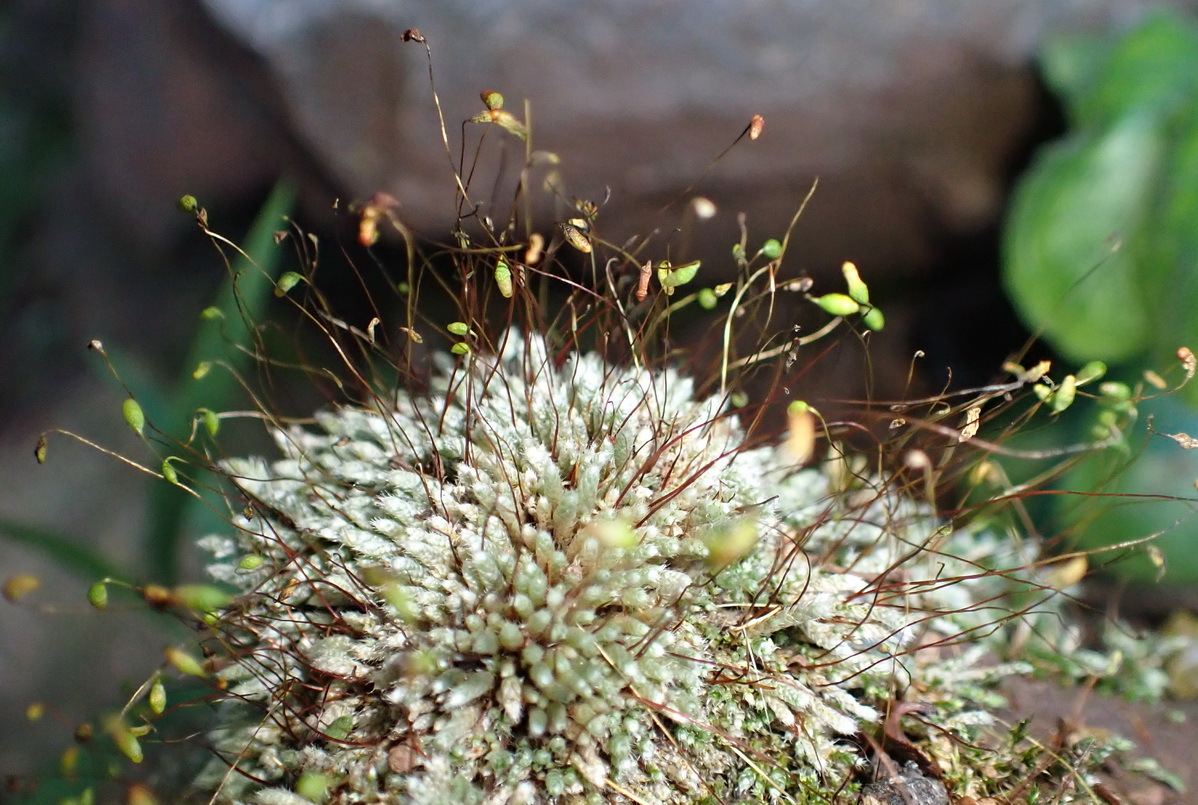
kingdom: Plantae
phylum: Bryophyta
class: Bryopsida
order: Bryales
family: Bryaceae
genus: Bryum
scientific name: Bryum argenteum
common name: Silver-moss
